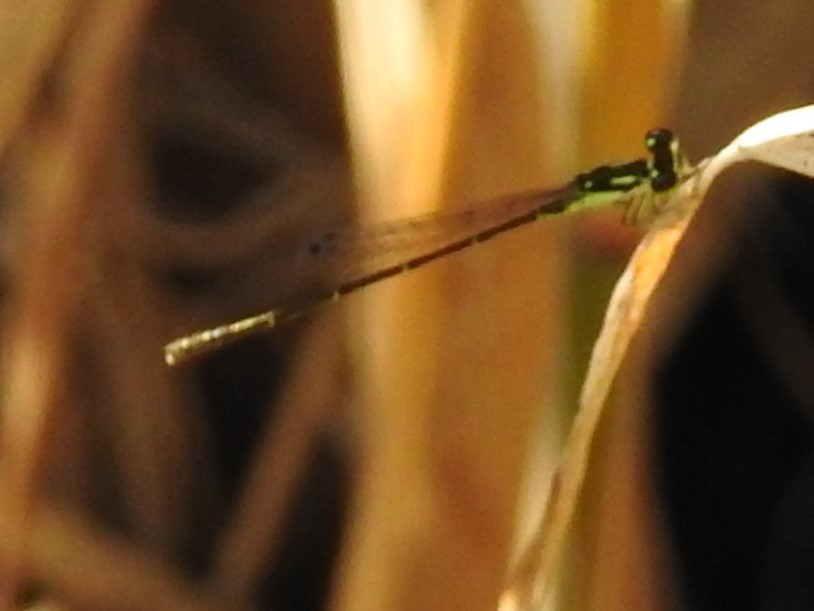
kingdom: Animalia
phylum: Arthropoda
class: Insecta
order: Odonata
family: Coenagrionidae
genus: Ischnura
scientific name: Ischnura posita
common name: Fragile forktail
